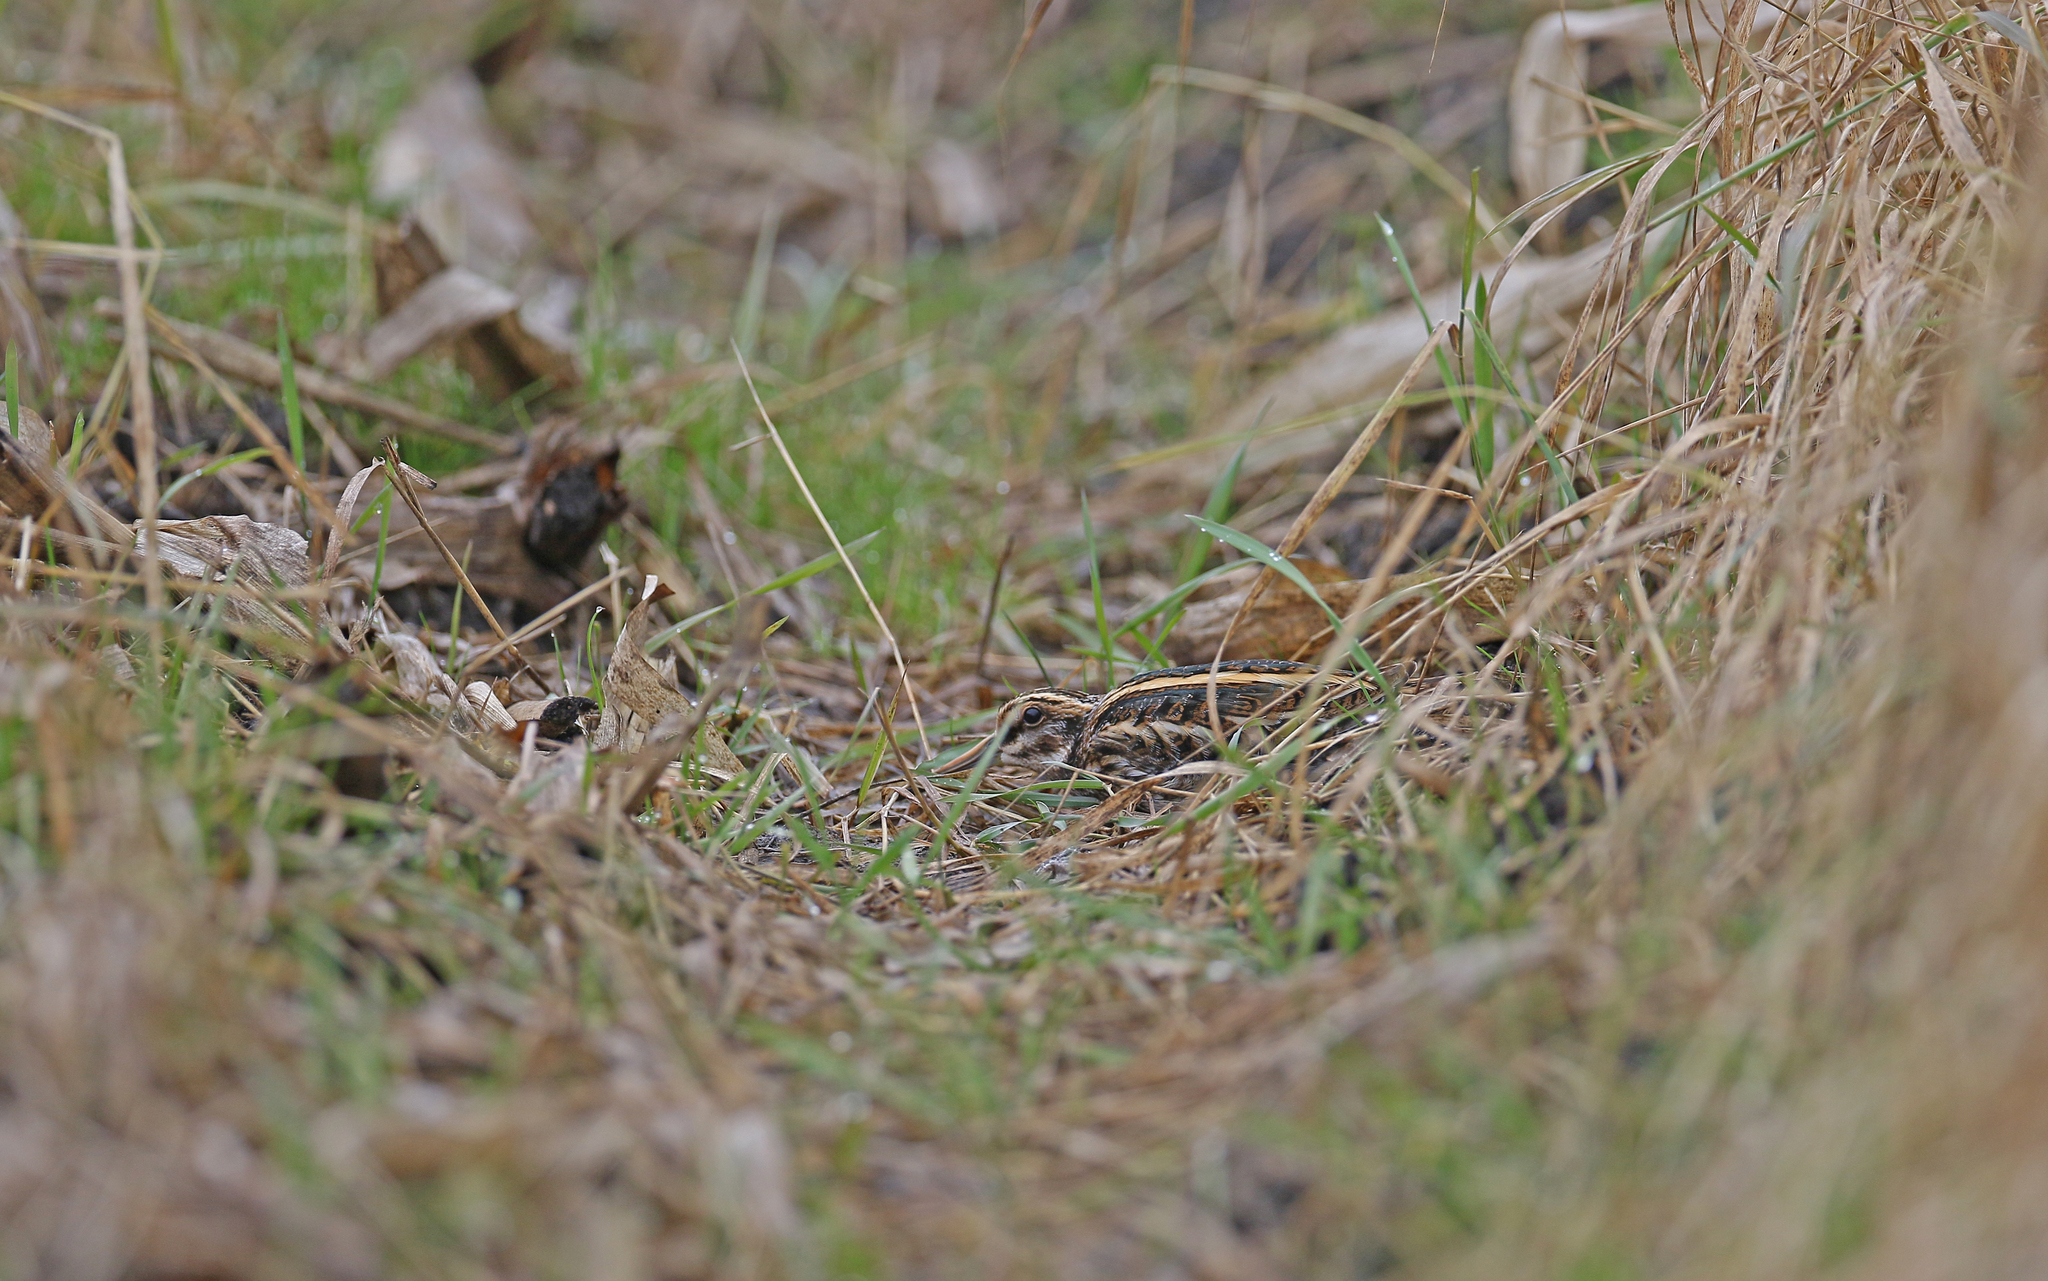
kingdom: Animalia
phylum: Chordata
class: Aves
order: Charadriiformes
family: Scolopacidae
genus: Lymnocryptes
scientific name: Lymnocryptes minimus
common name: Jack snipe
